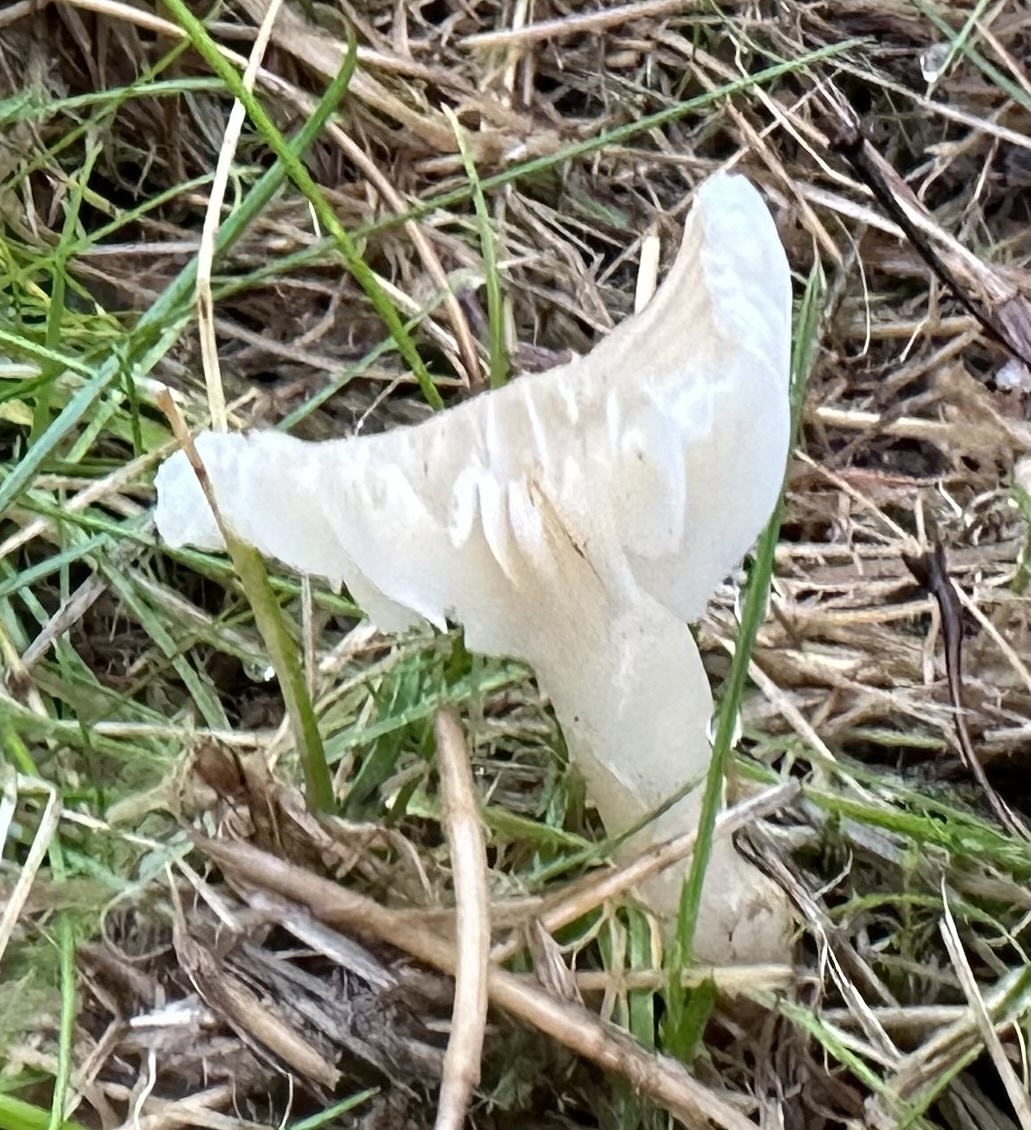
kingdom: Fungi
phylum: Basidiomycota
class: Agaricomycetes
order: Agaricales
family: Hygrophoraceae
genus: Cuphophyllus
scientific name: Cuphophyllus virgineus
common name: Snowy waxcap
